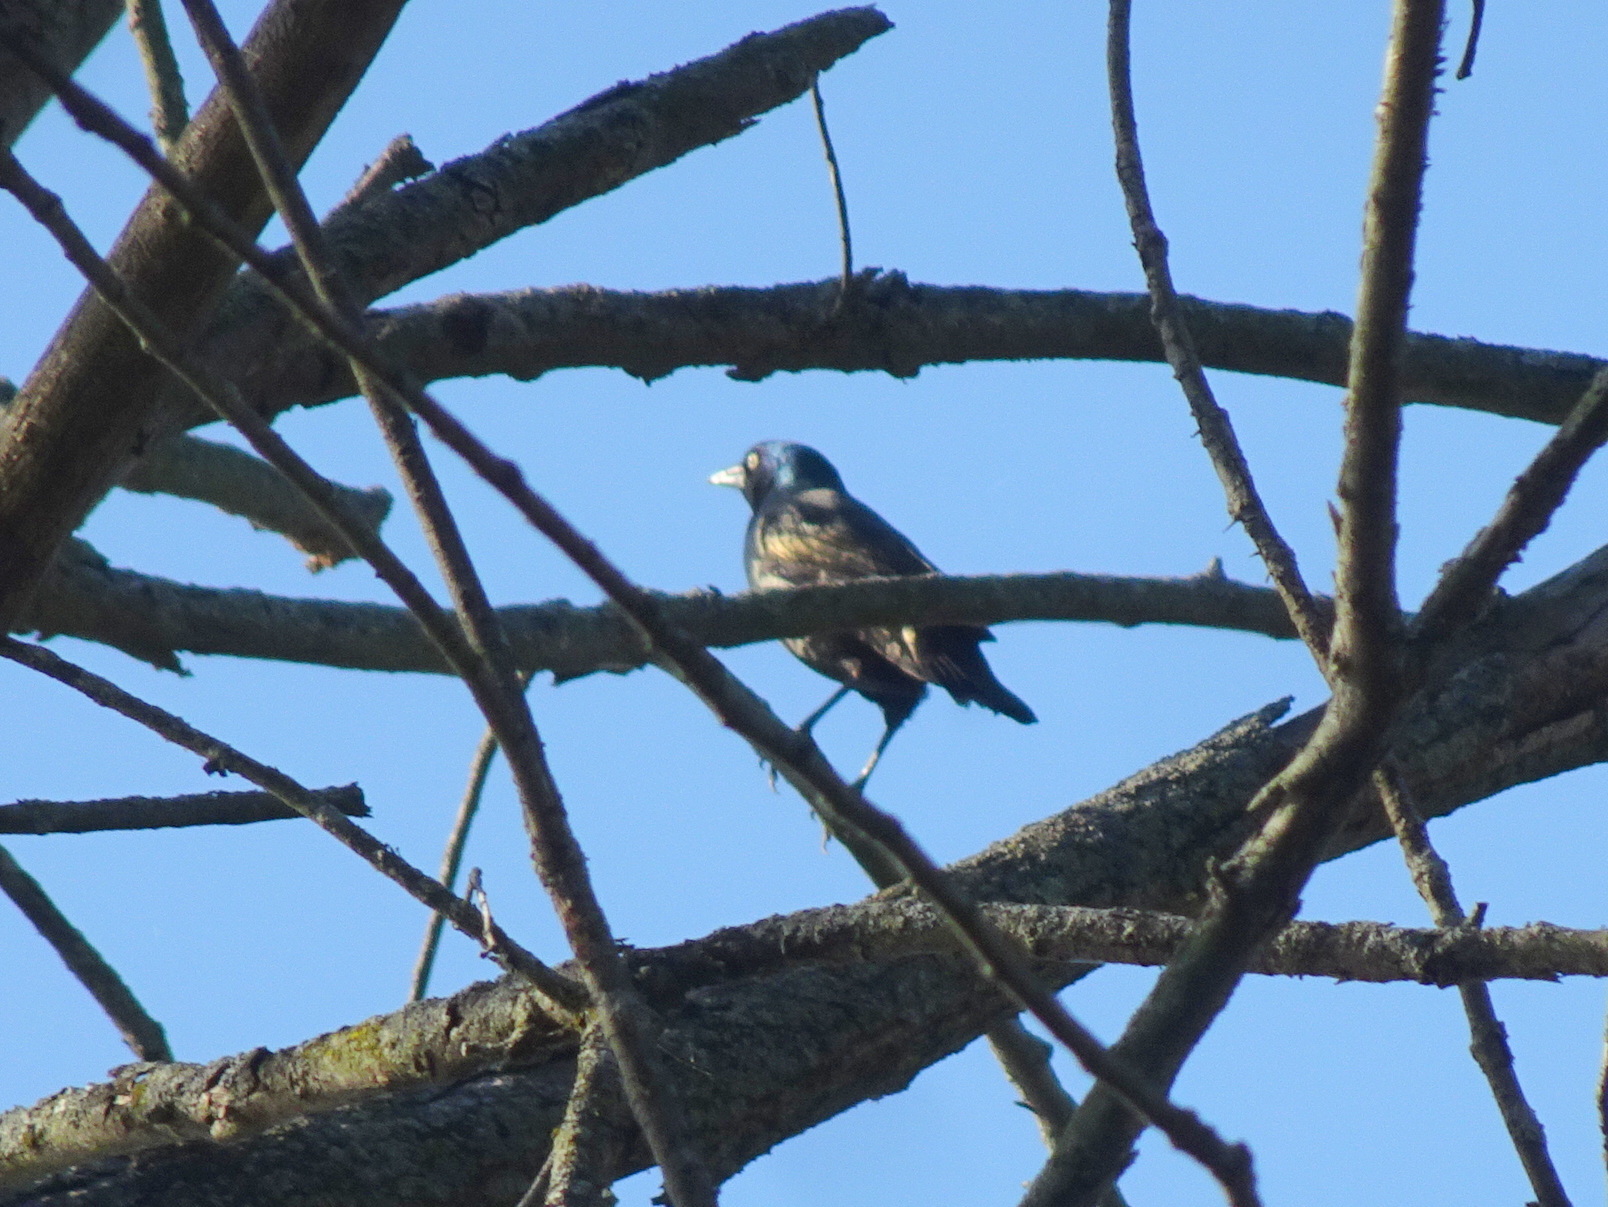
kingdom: Animalia
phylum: Chordata
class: Aves
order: Passeriformes
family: Icteridae
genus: Quiscalus
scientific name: Quiscalus quiscula
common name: Common grackle
